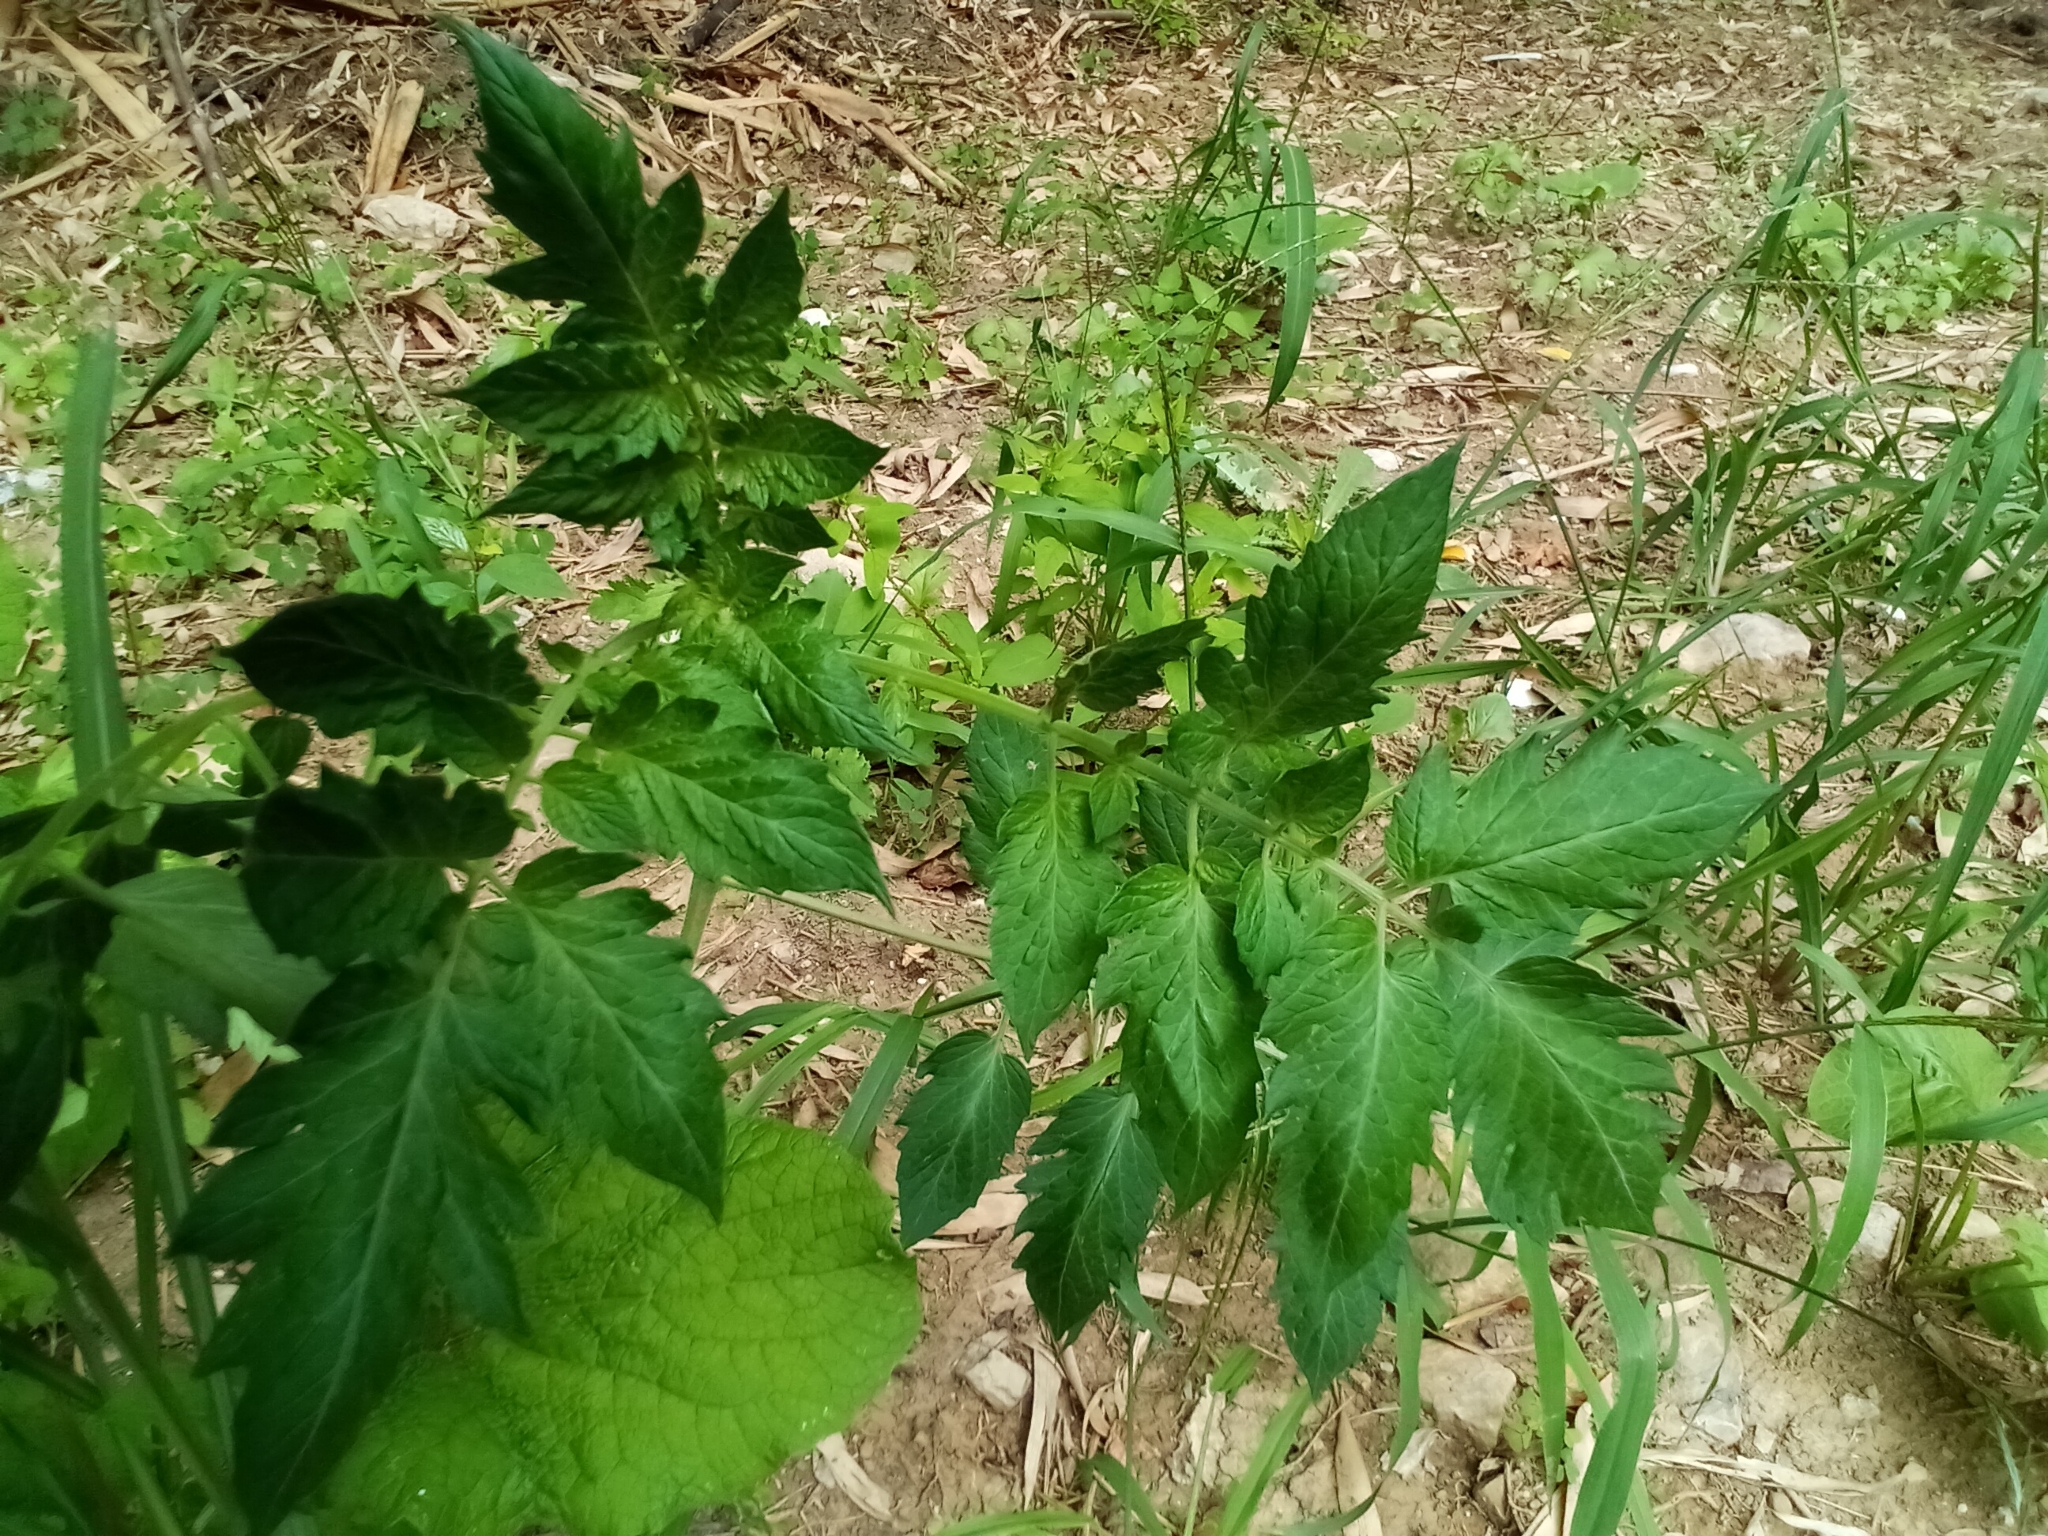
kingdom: Plantae
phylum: Tracheophyta
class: Magnoliopsida
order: Solanales
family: Solanaceae
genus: Solanum
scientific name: Solanum lycopersicum
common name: Garden tomato
